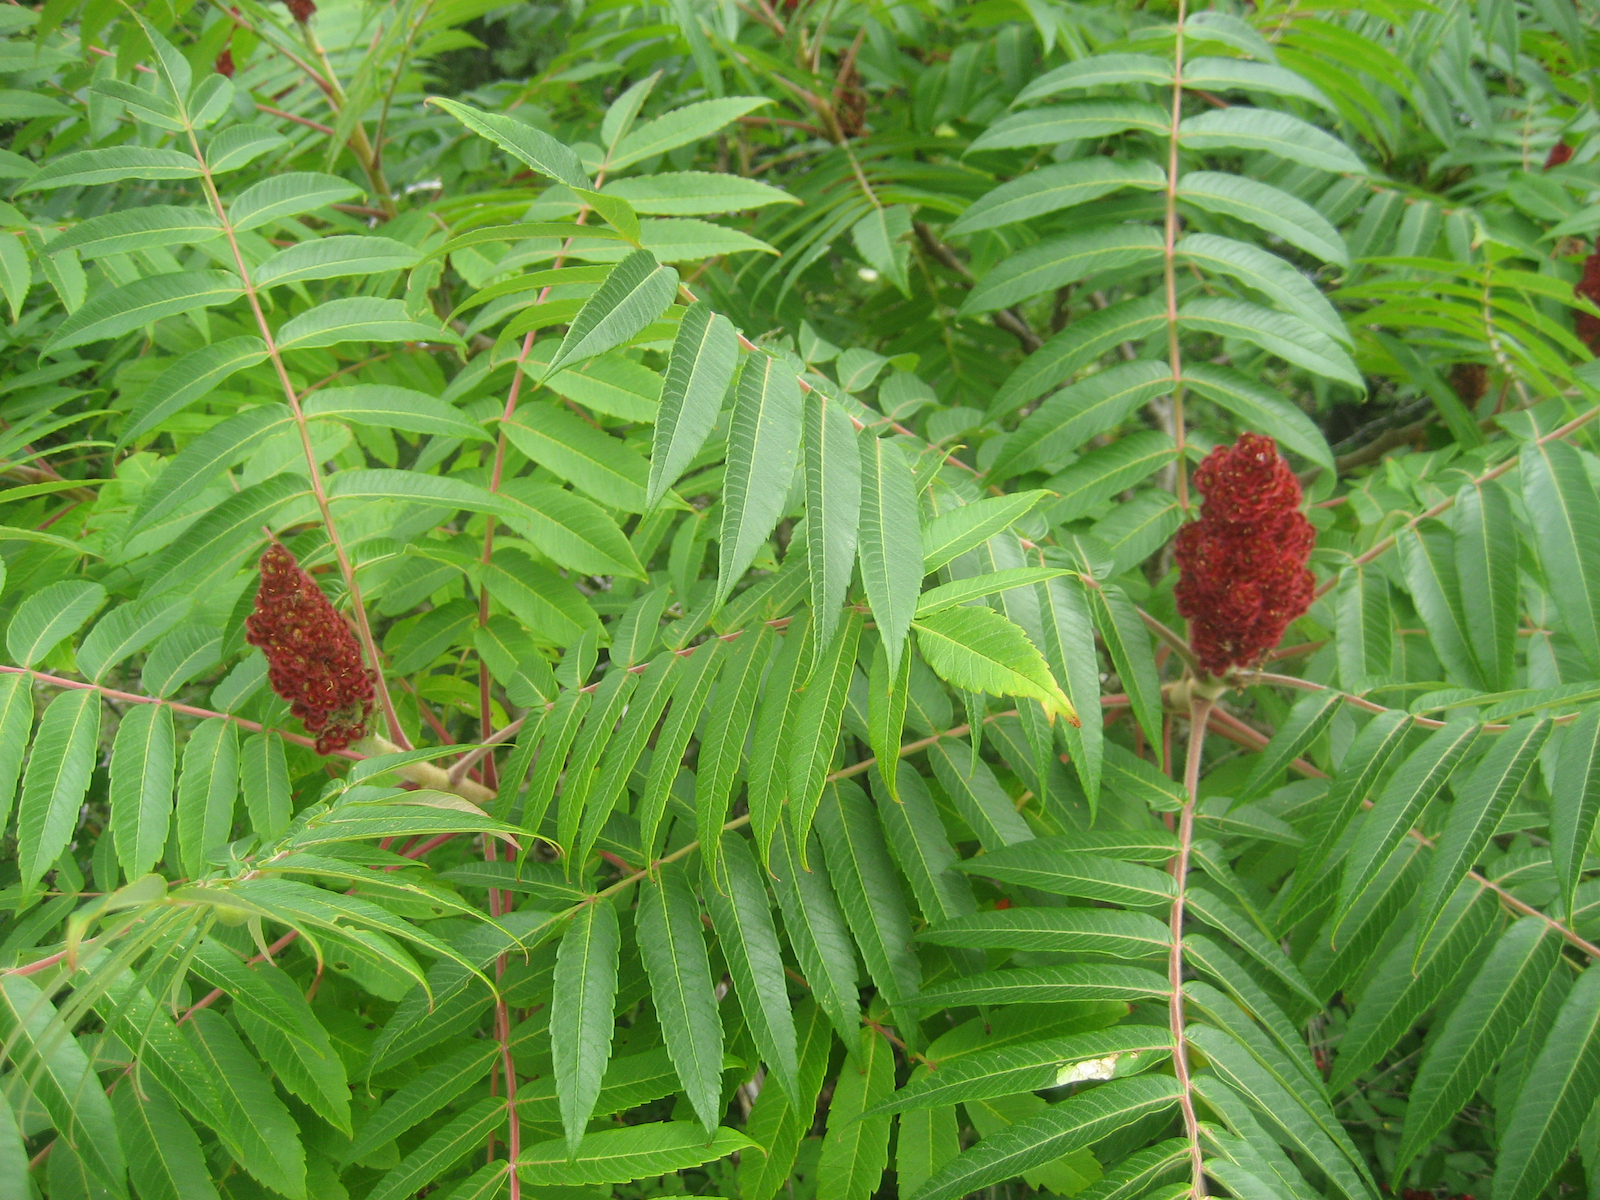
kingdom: Plantae
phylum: Tracheophyta
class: Magnoliopsida
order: Sapindales
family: Anacardiaceae
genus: Rhus
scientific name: Rhus typhina
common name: Staghorn sumac
